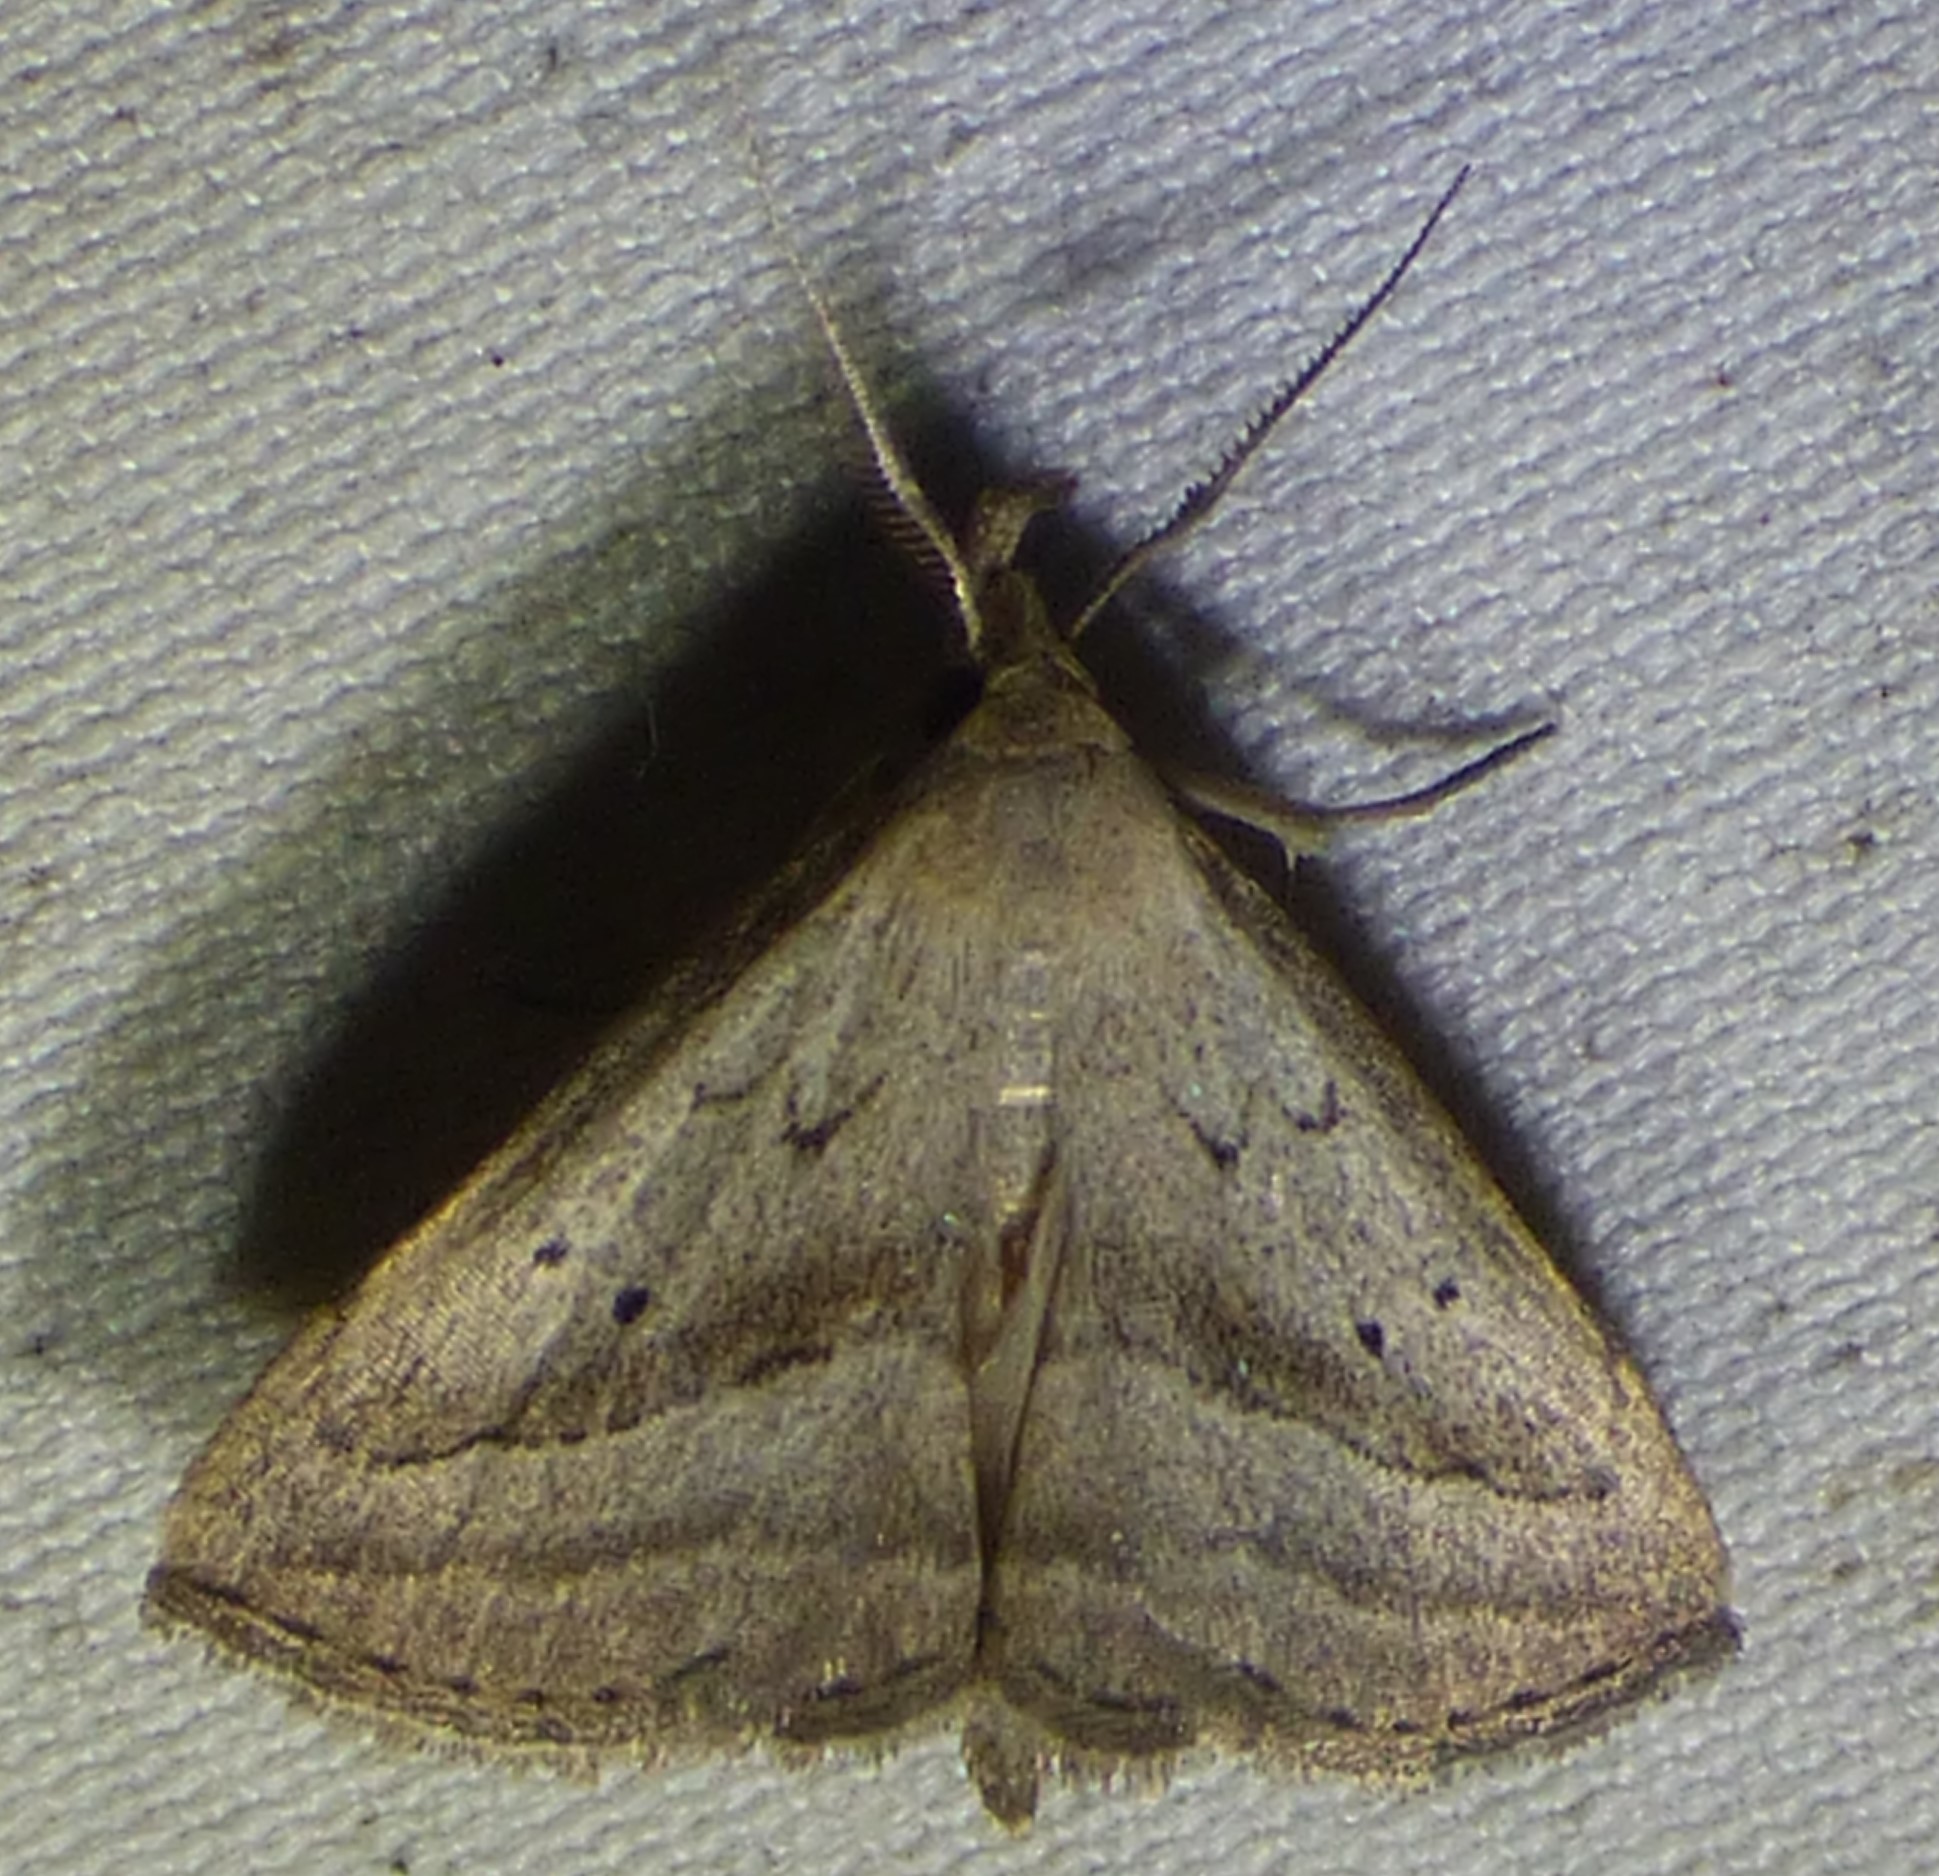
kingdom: Animalia
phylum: Arthropoda
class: Insecta
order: Lepidoptera
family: Erebidae
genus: Macrochilo
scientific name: Macrochilo hypocritalis
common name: Twin-dotted owlet
